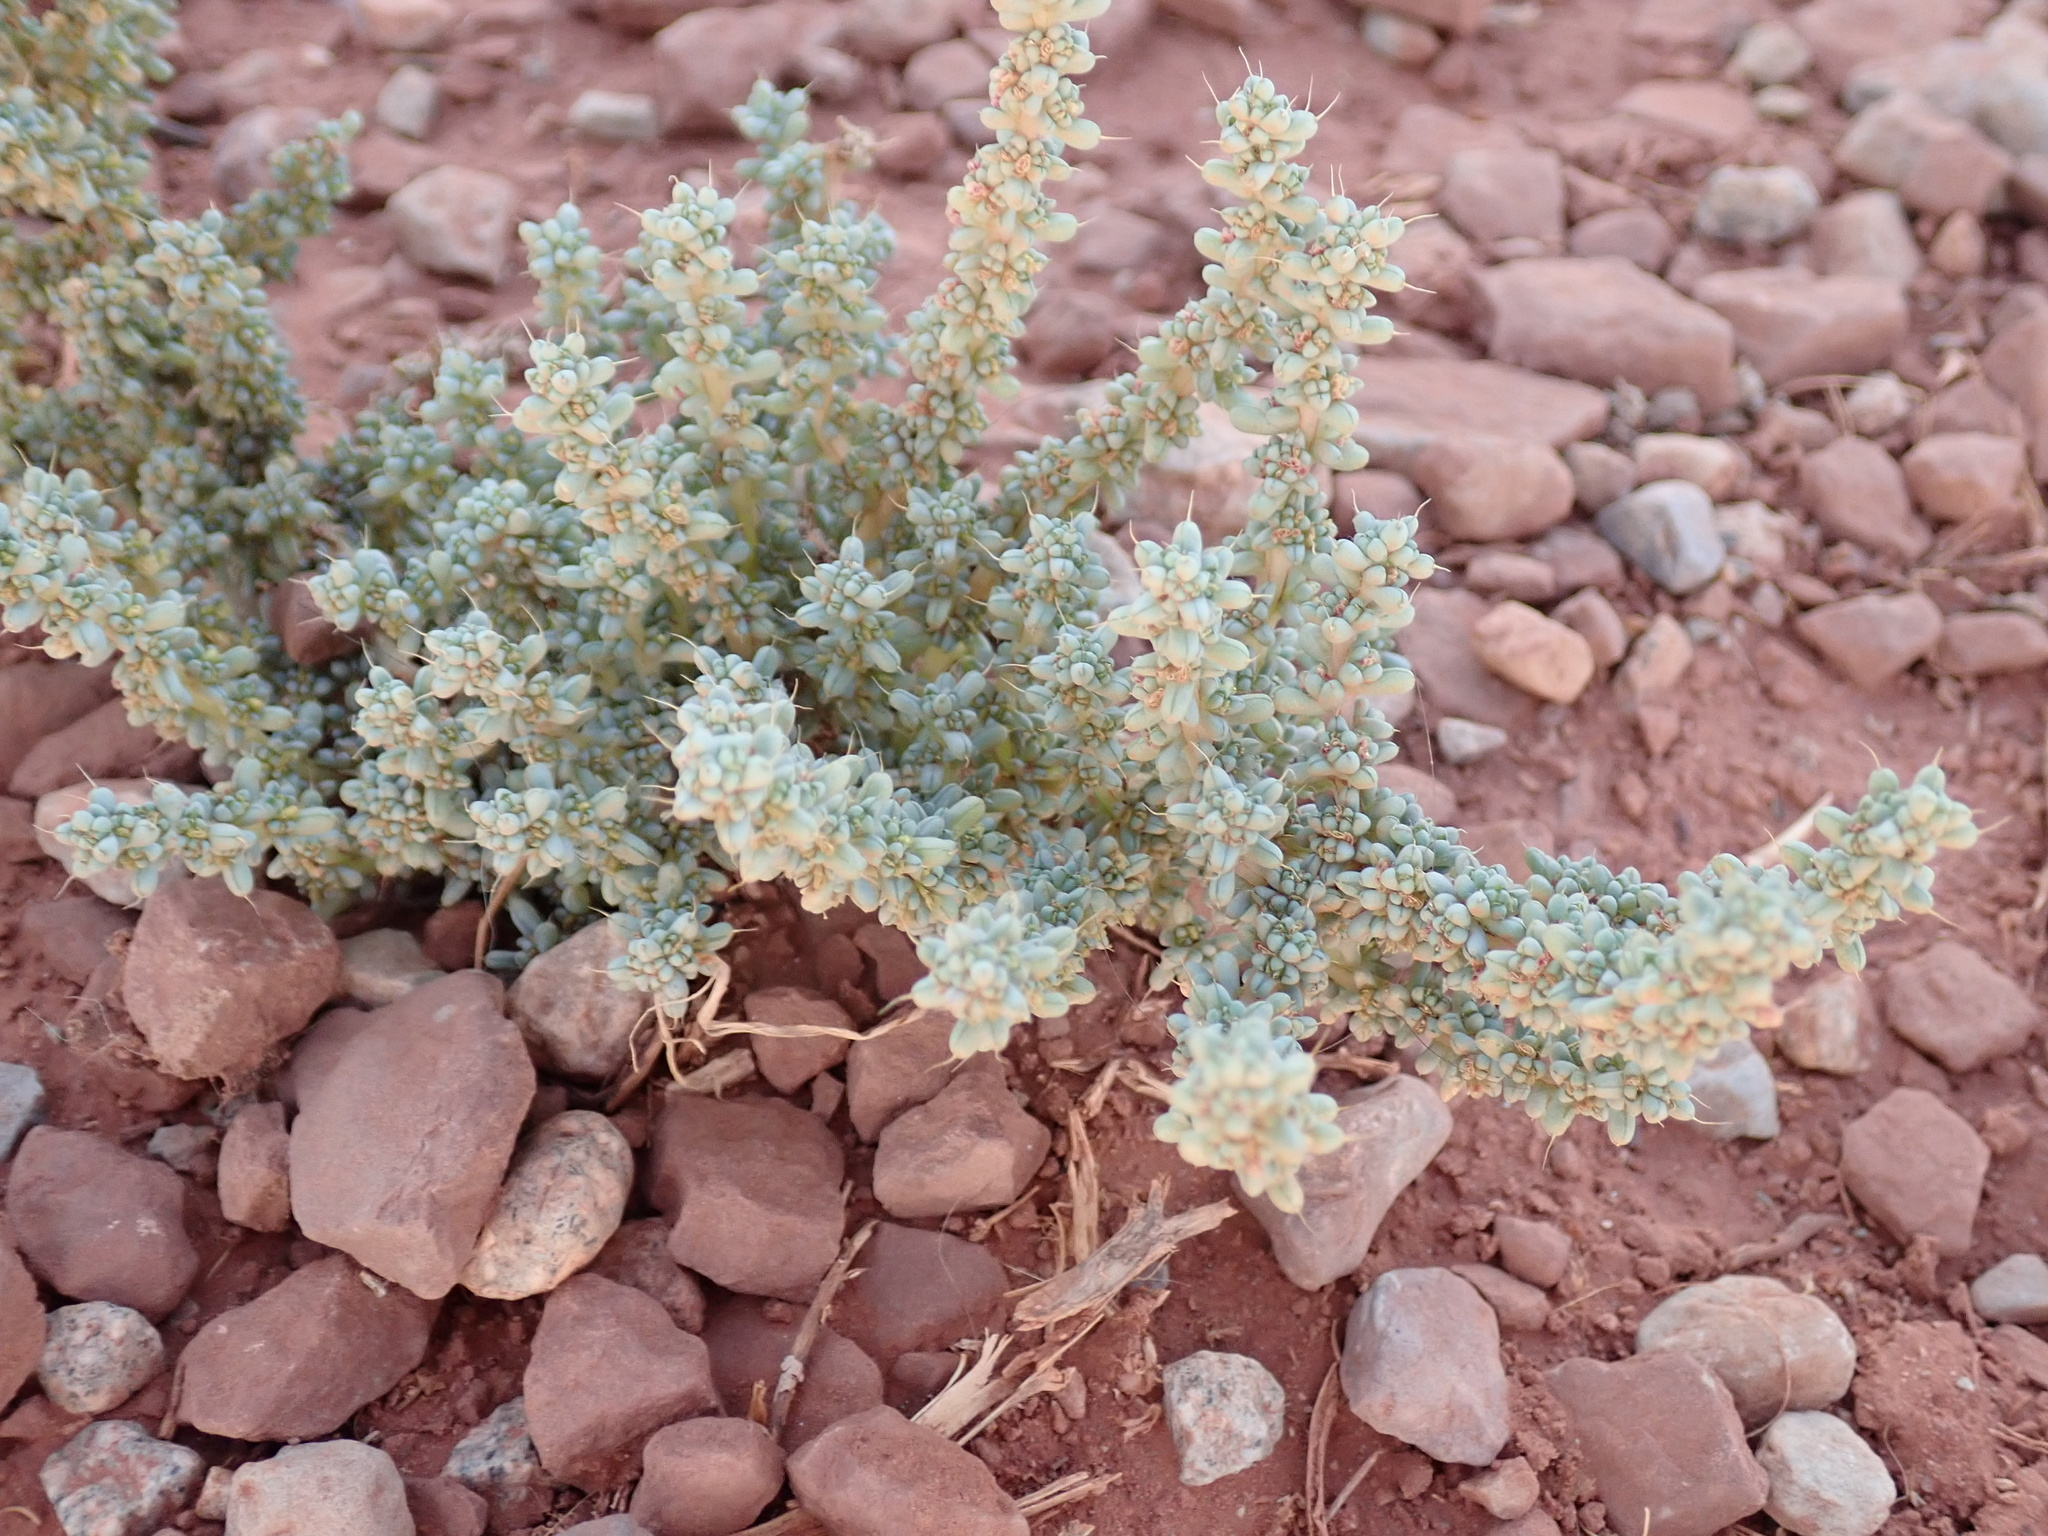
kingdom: Plantae
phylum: Tracheophyta
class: Magnoliopsida
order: Caryophyllales
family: Amaranthaceae
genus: Halogeton
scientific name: Halogeton glomeratus
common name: Saltlover
